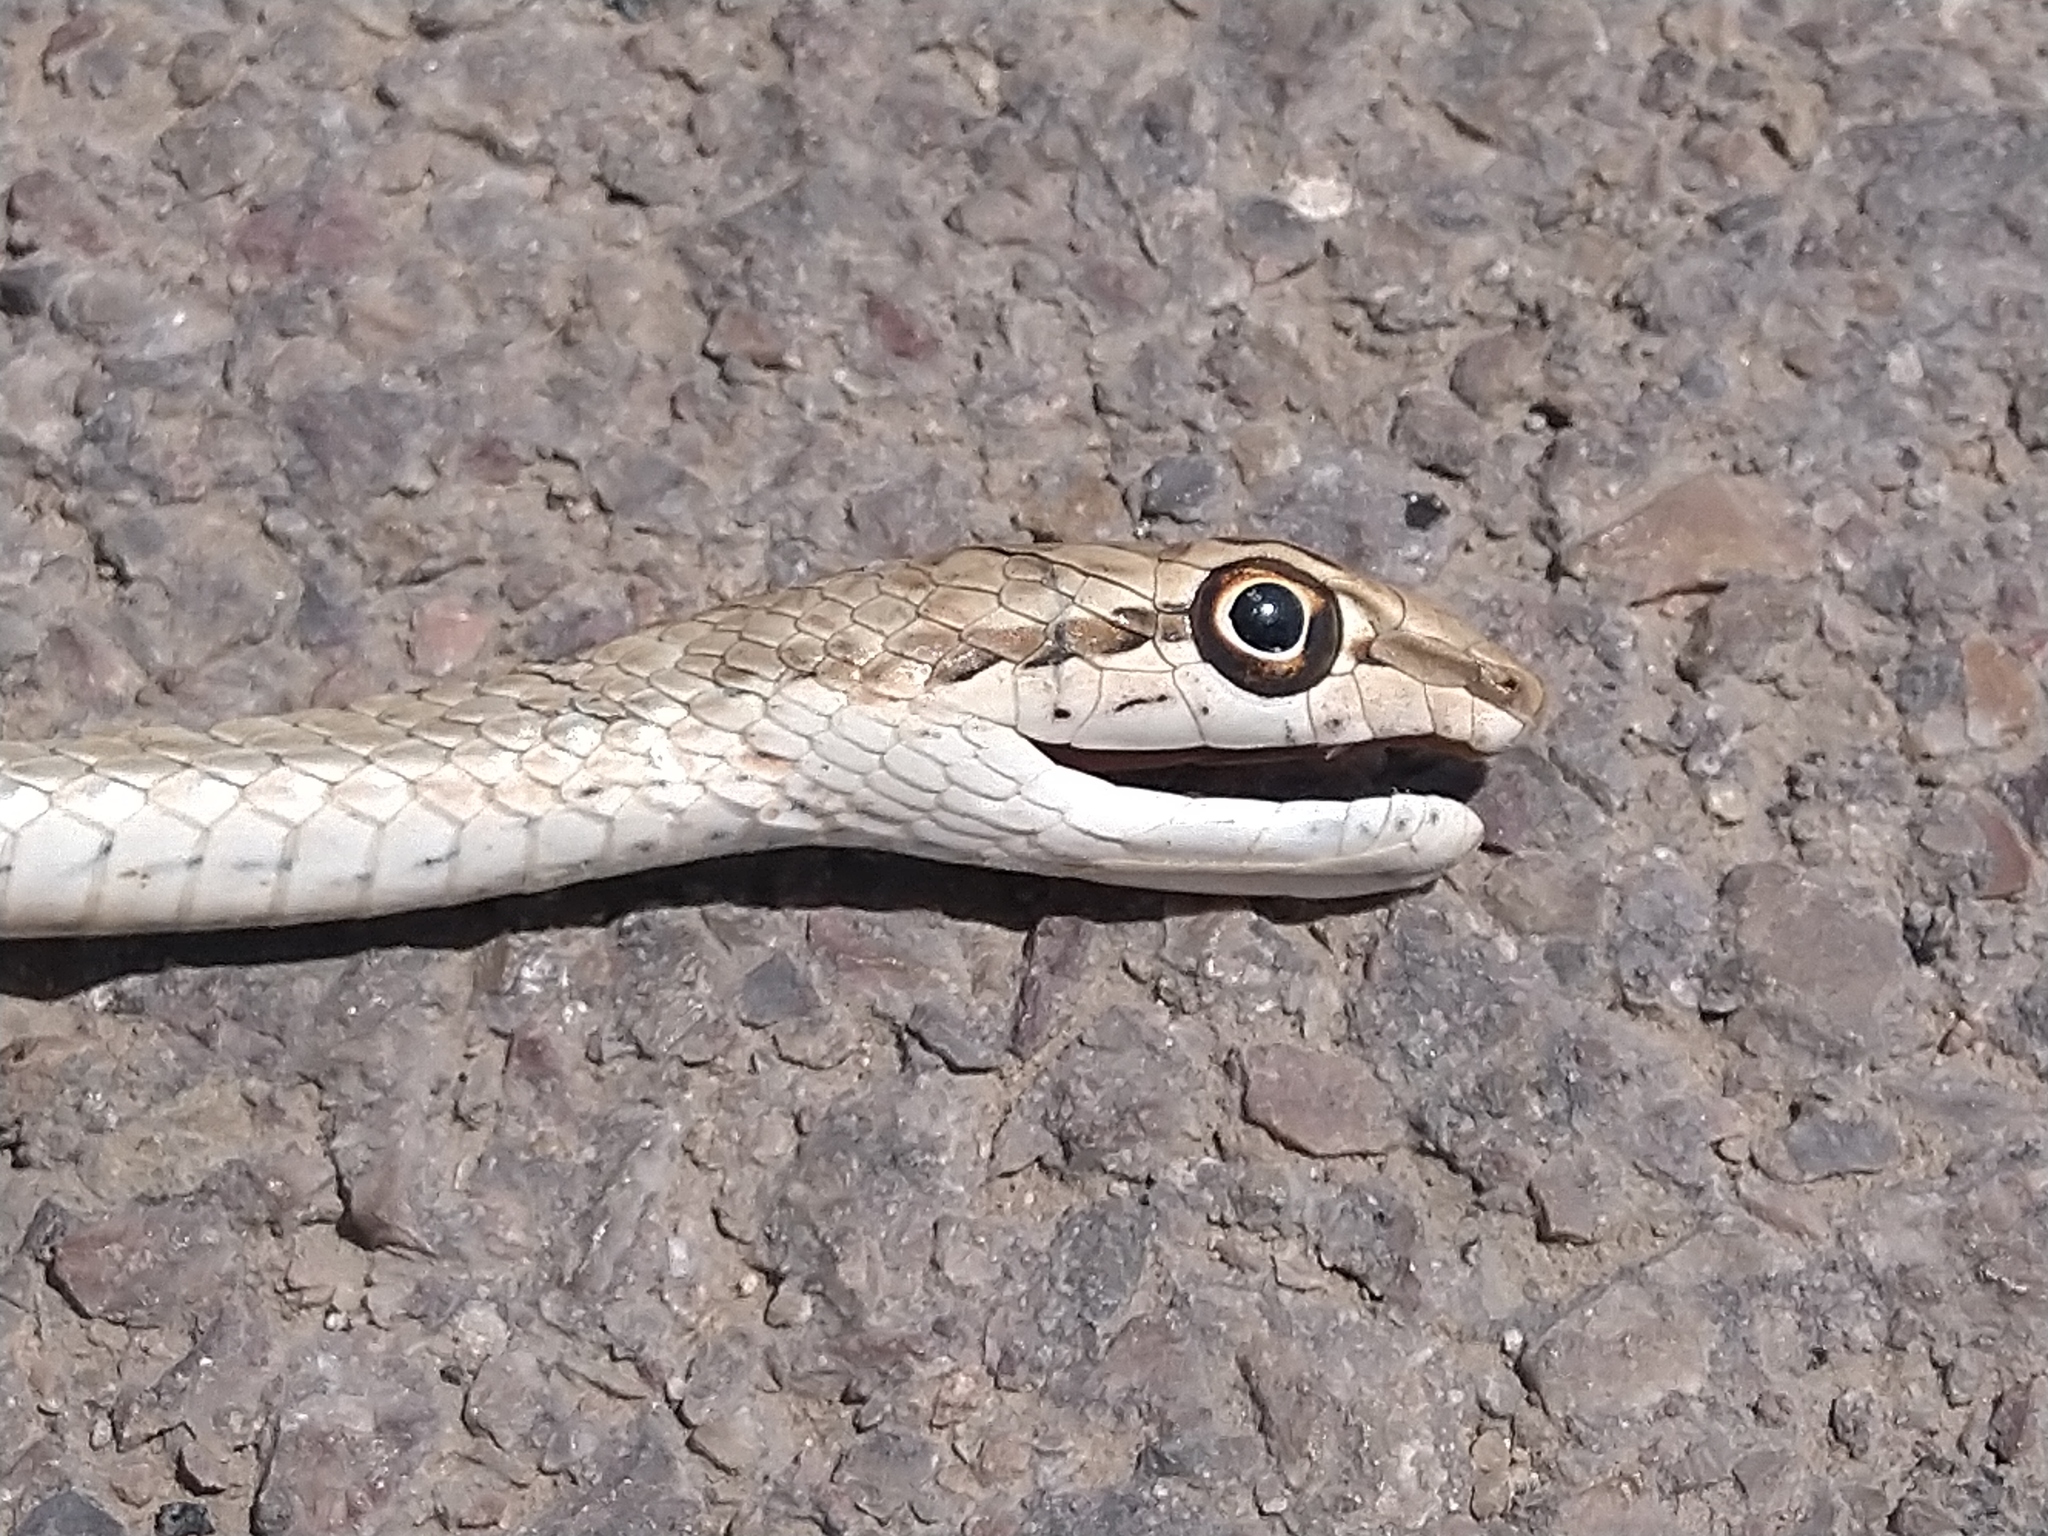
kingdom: Animalia
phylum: Chordata
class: Squamata
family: Psammophiidae
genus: Psammophis
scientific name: Psammophis schokari
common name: Schokari sand racer
